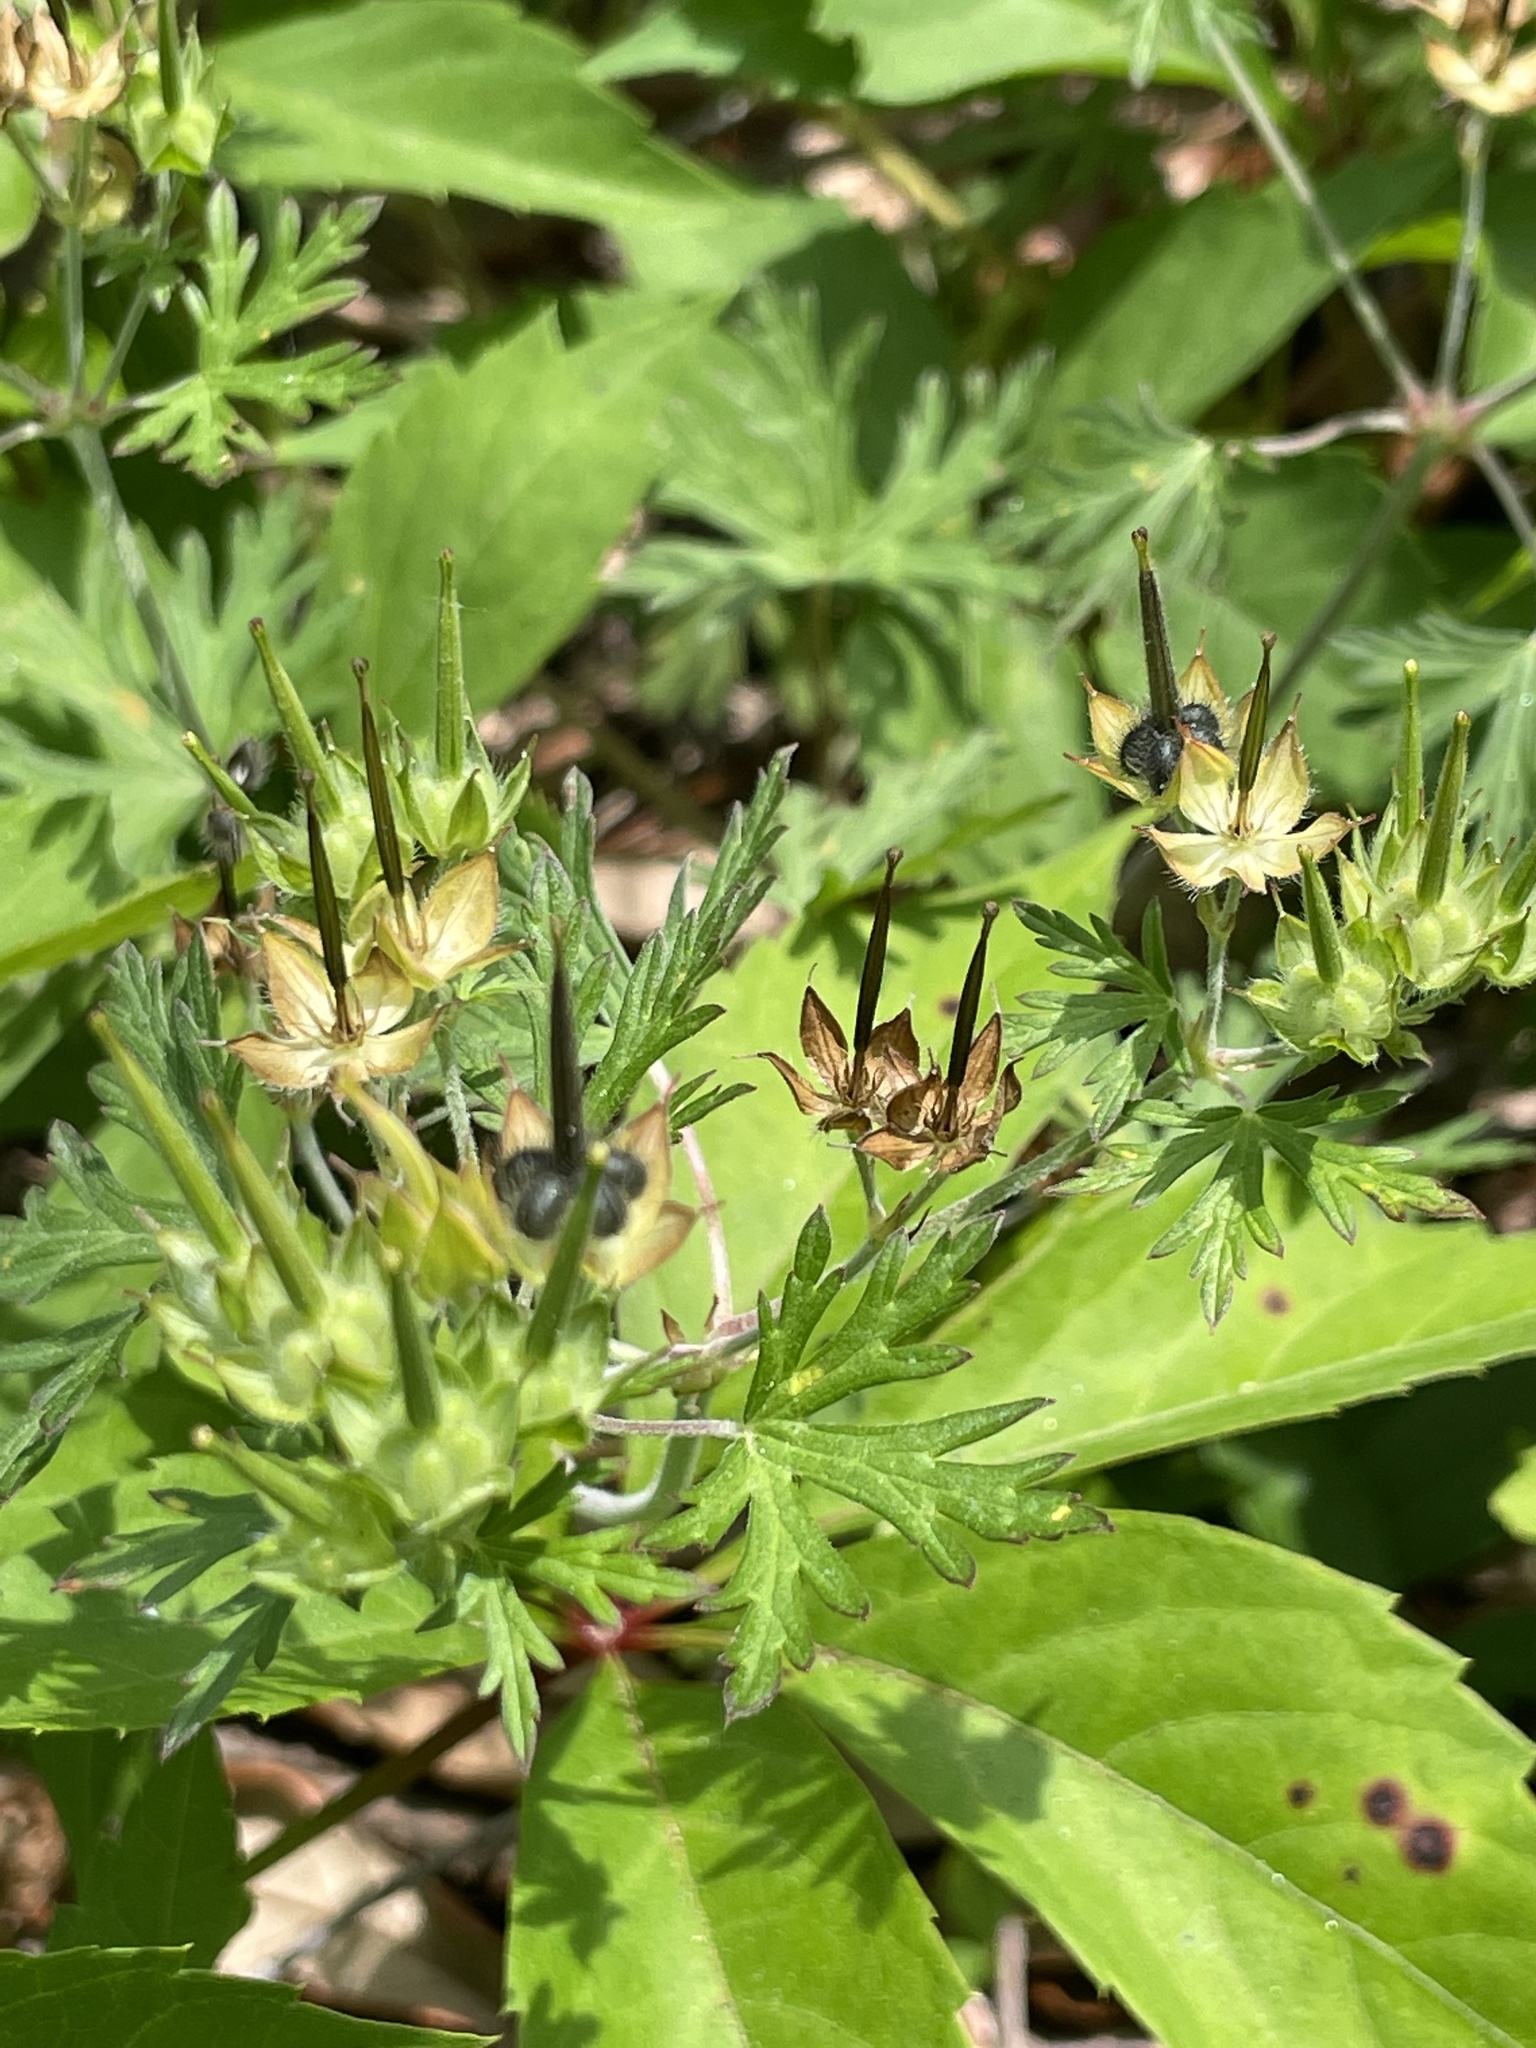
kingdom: Plantae
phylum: Tracheophyta
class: Magnoliopsida
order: Geraniales
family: Geraniaceae
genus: Geranium
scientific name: Geranium carolinianum
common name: Carolina crane's-bill
